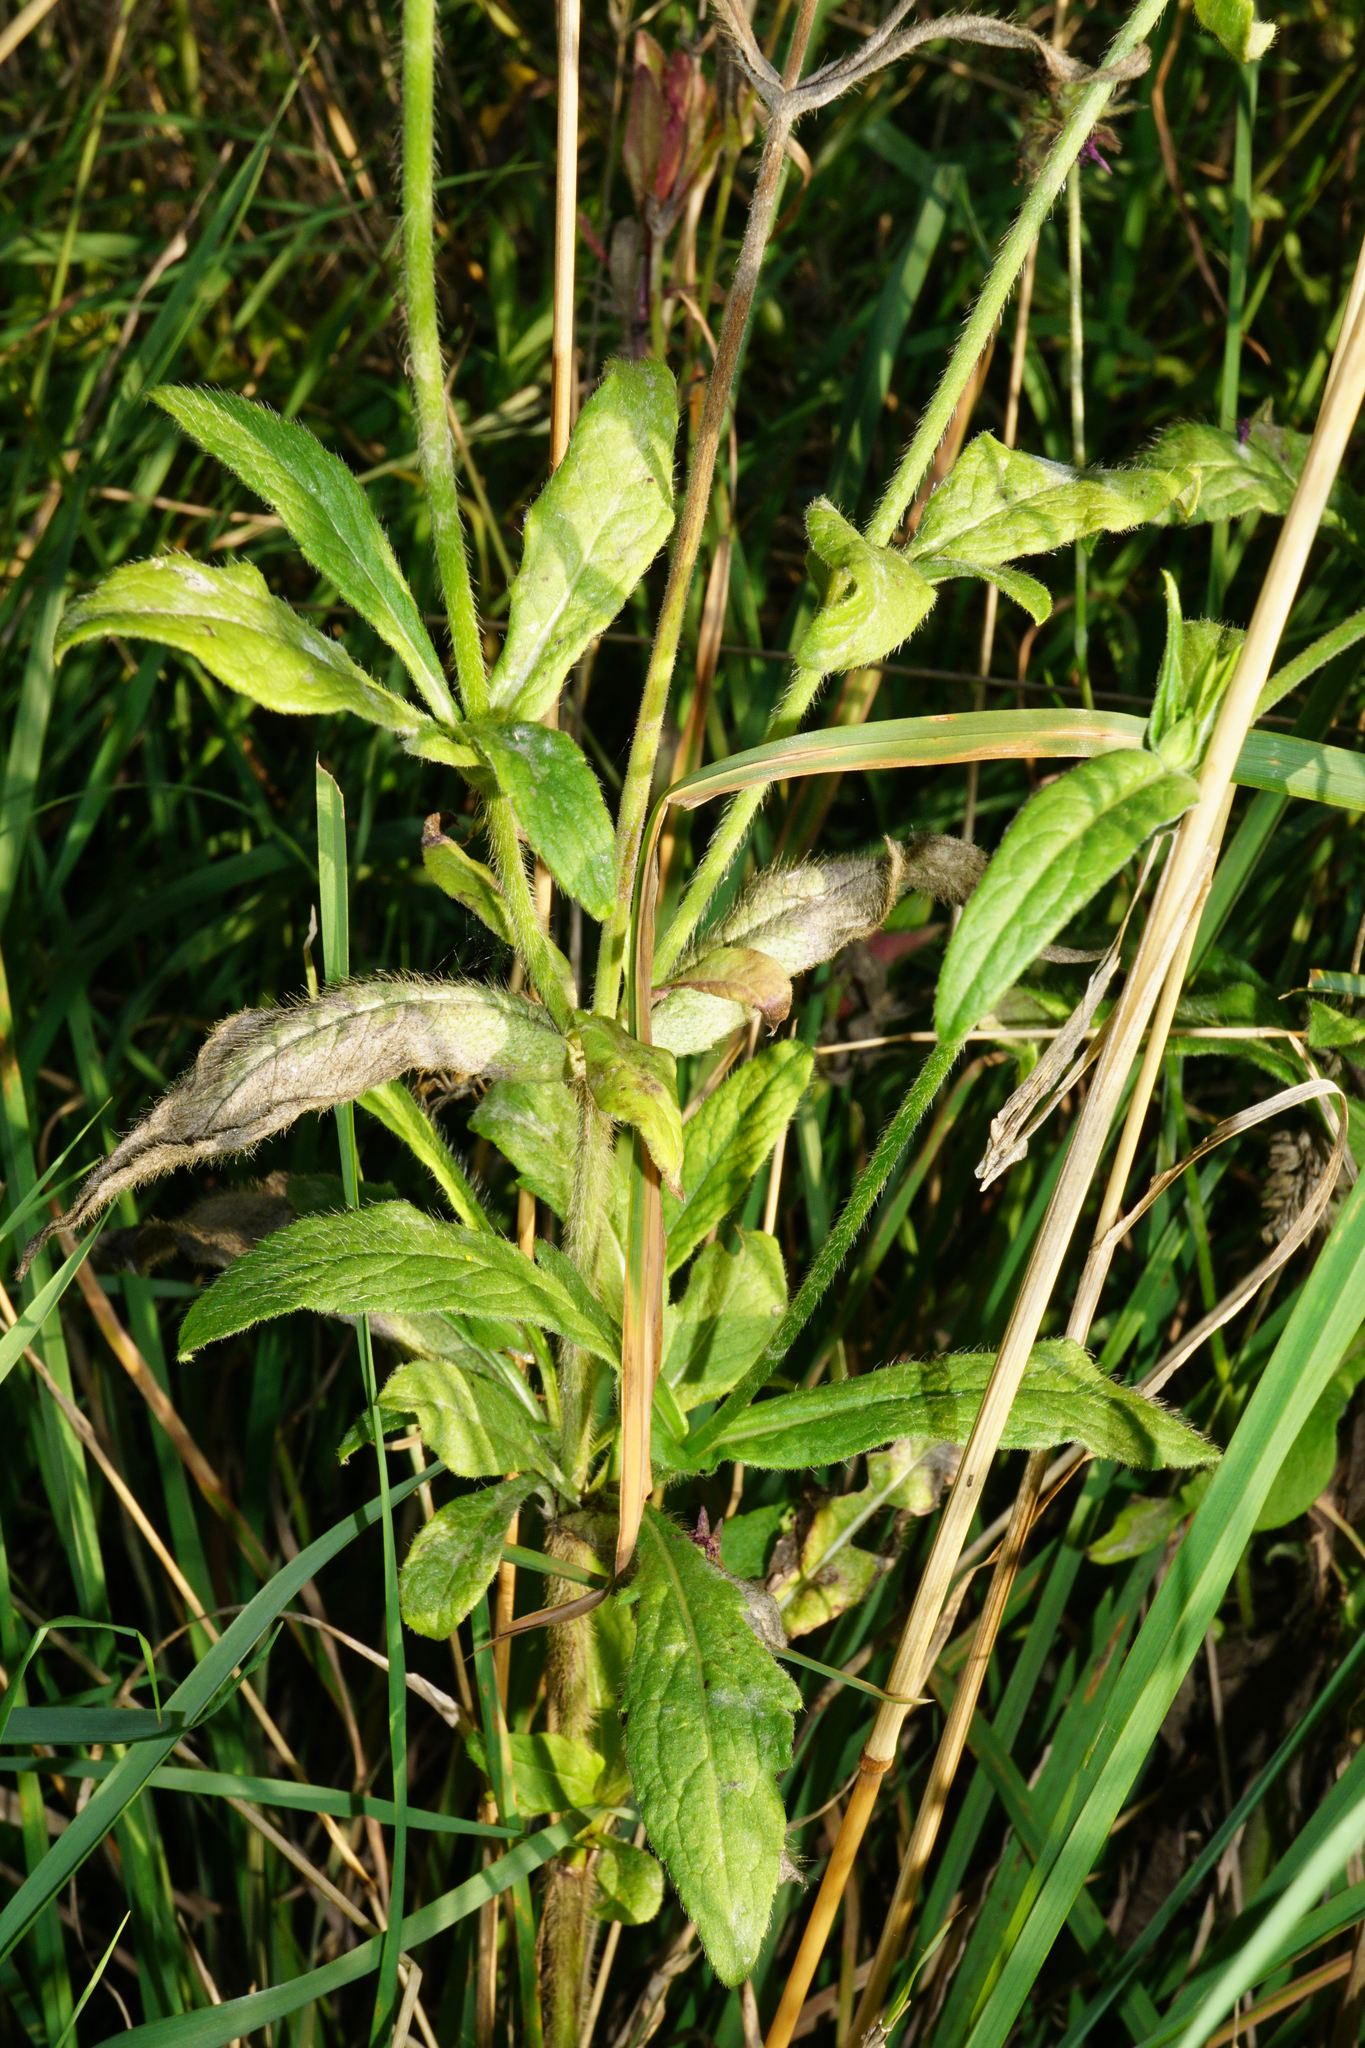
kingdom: Plantae
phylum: Tracheophyta
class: Magnoliopsida
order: Dipsacales
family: Caprifoliaceae
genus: Knautia
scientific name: Knautia macedonica
